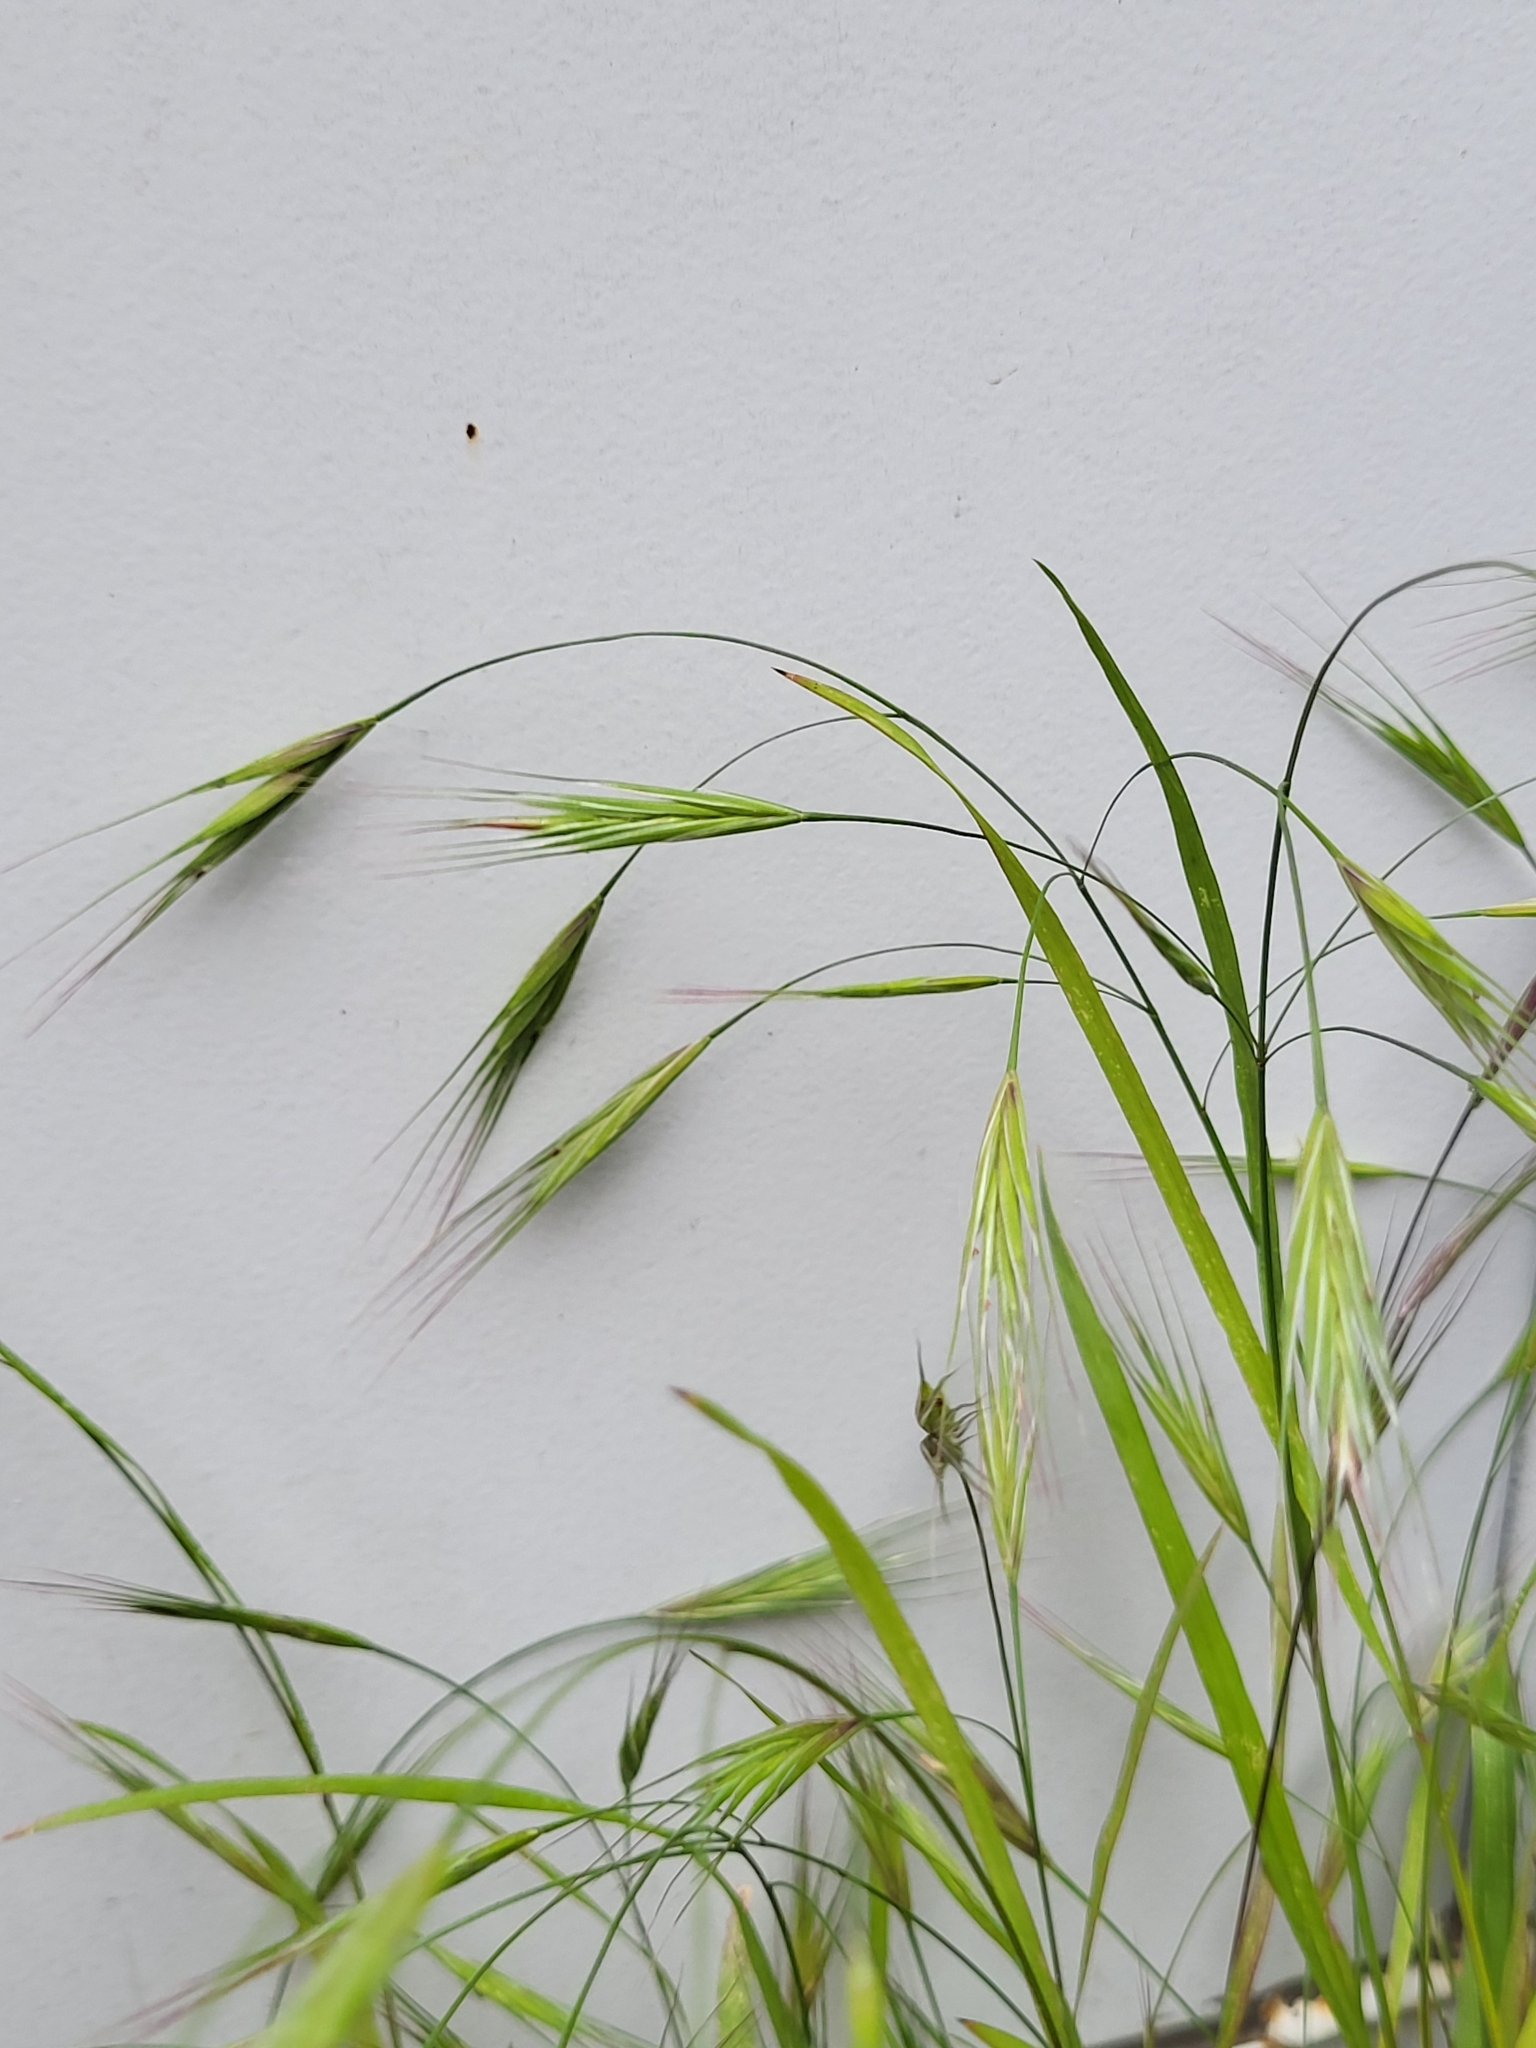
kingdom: Plantae
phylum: Tracheophyta
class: Liliopsida
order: Poales
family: Poaceae
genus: Bromus
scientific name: Bromus sterilis
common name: Poverty brome
